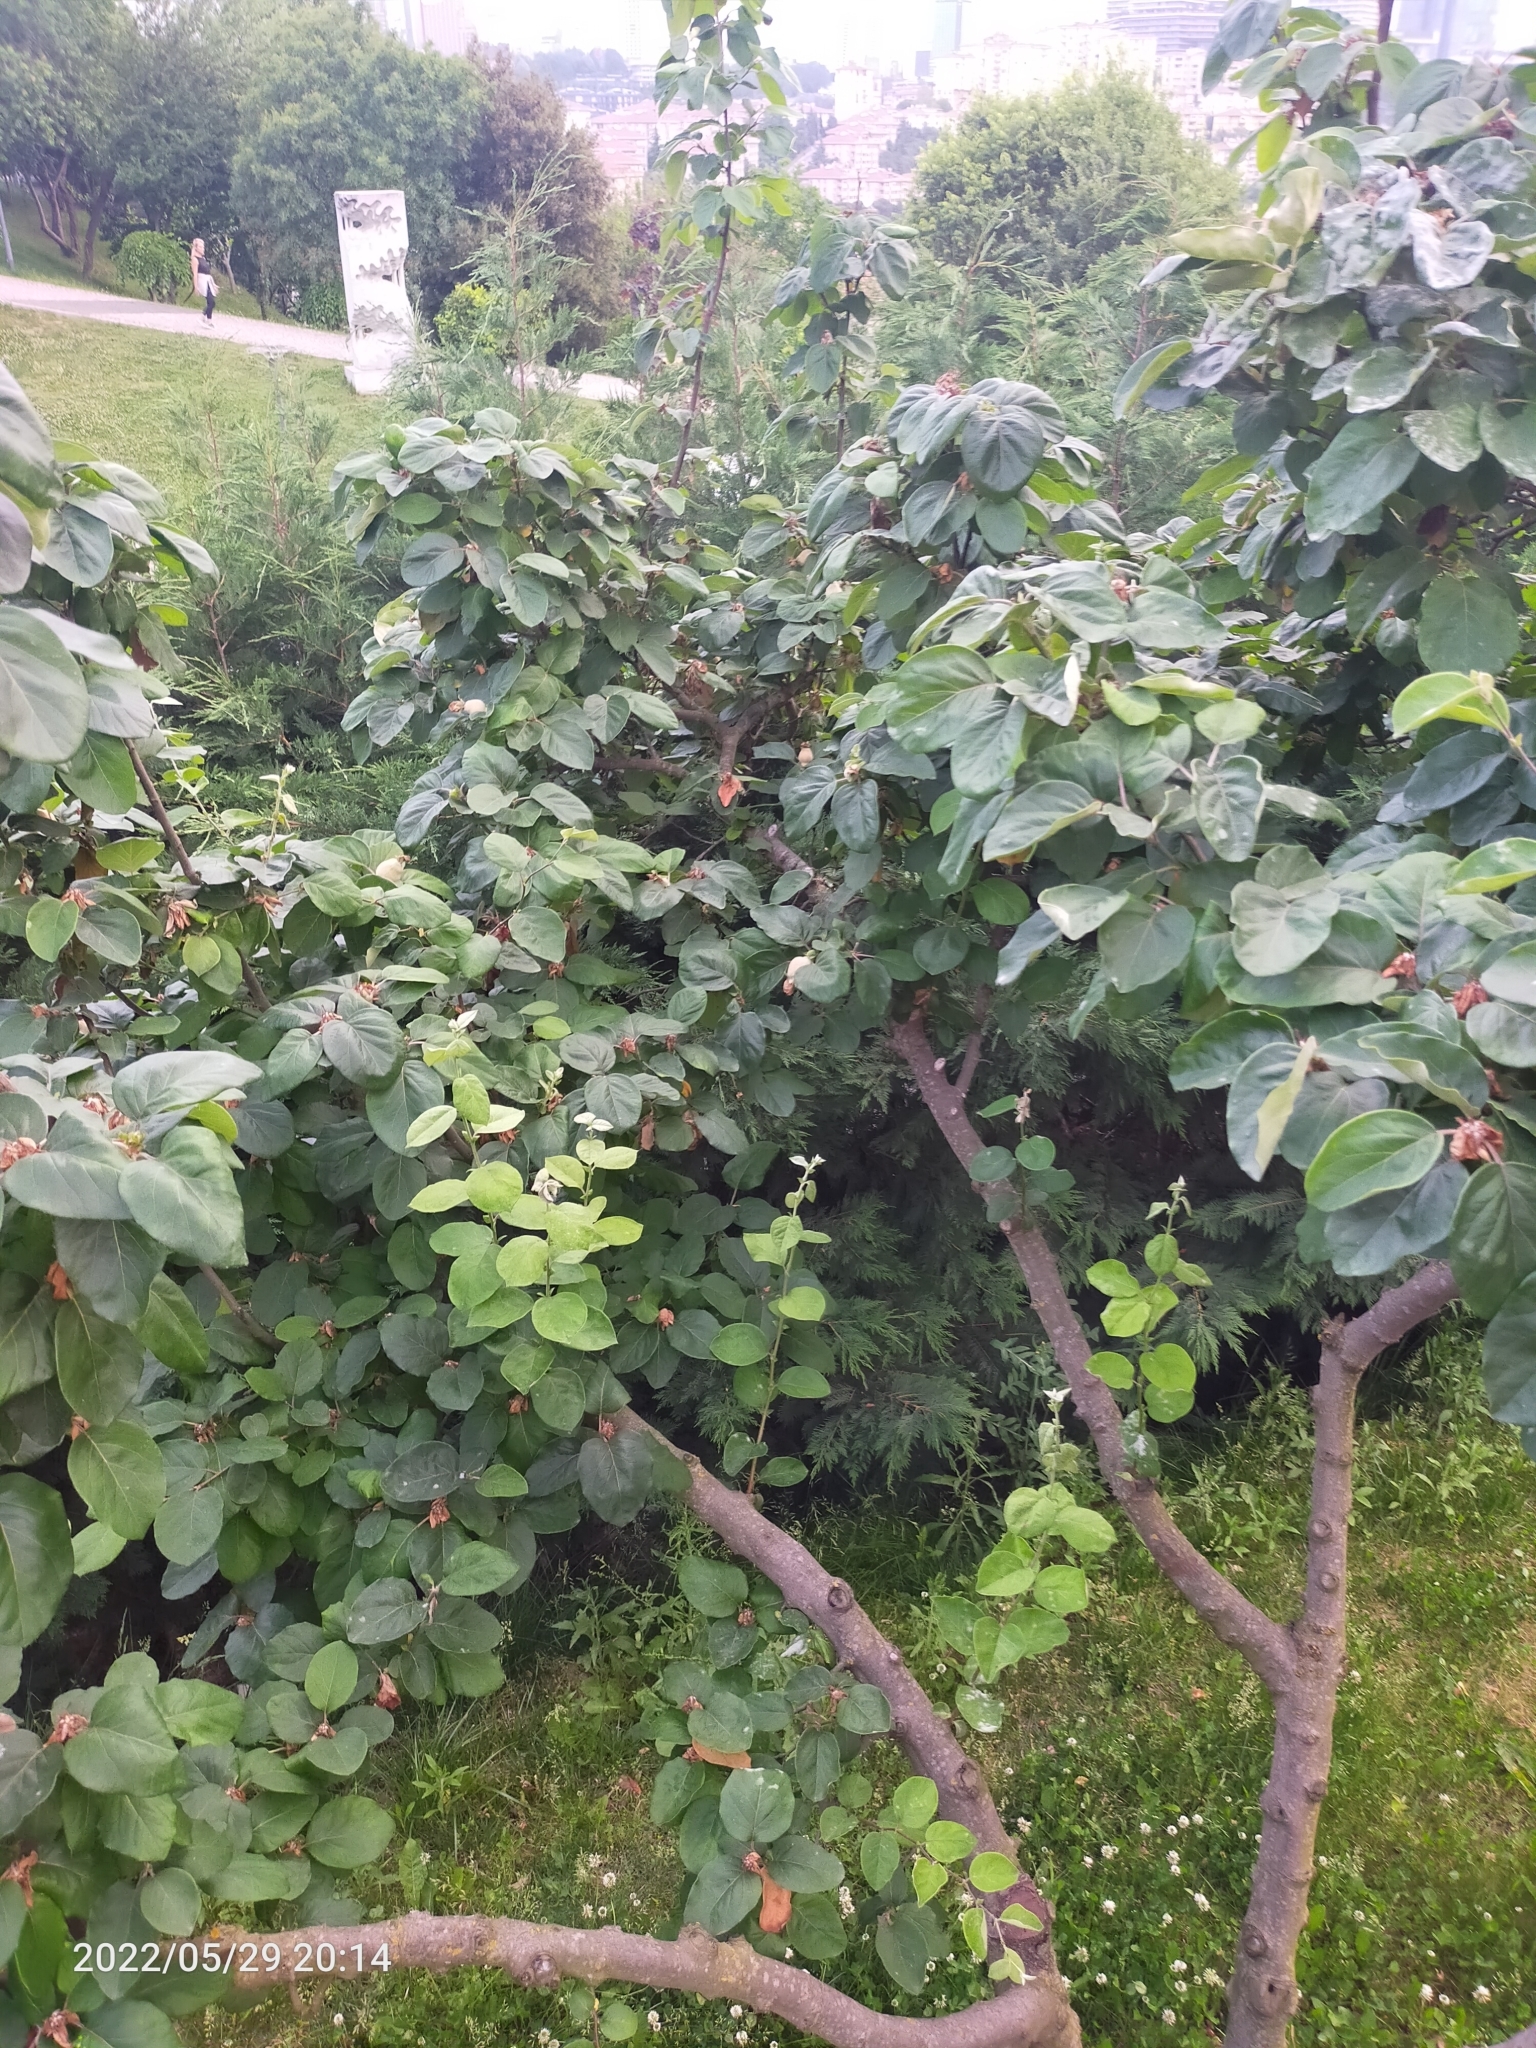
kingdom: Plantae
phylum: Tracheophyta
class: Magnoliopsida
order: Rosales
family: Rosaceae
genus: Cydonia
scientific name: Cydonia oblonga
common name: Quince
